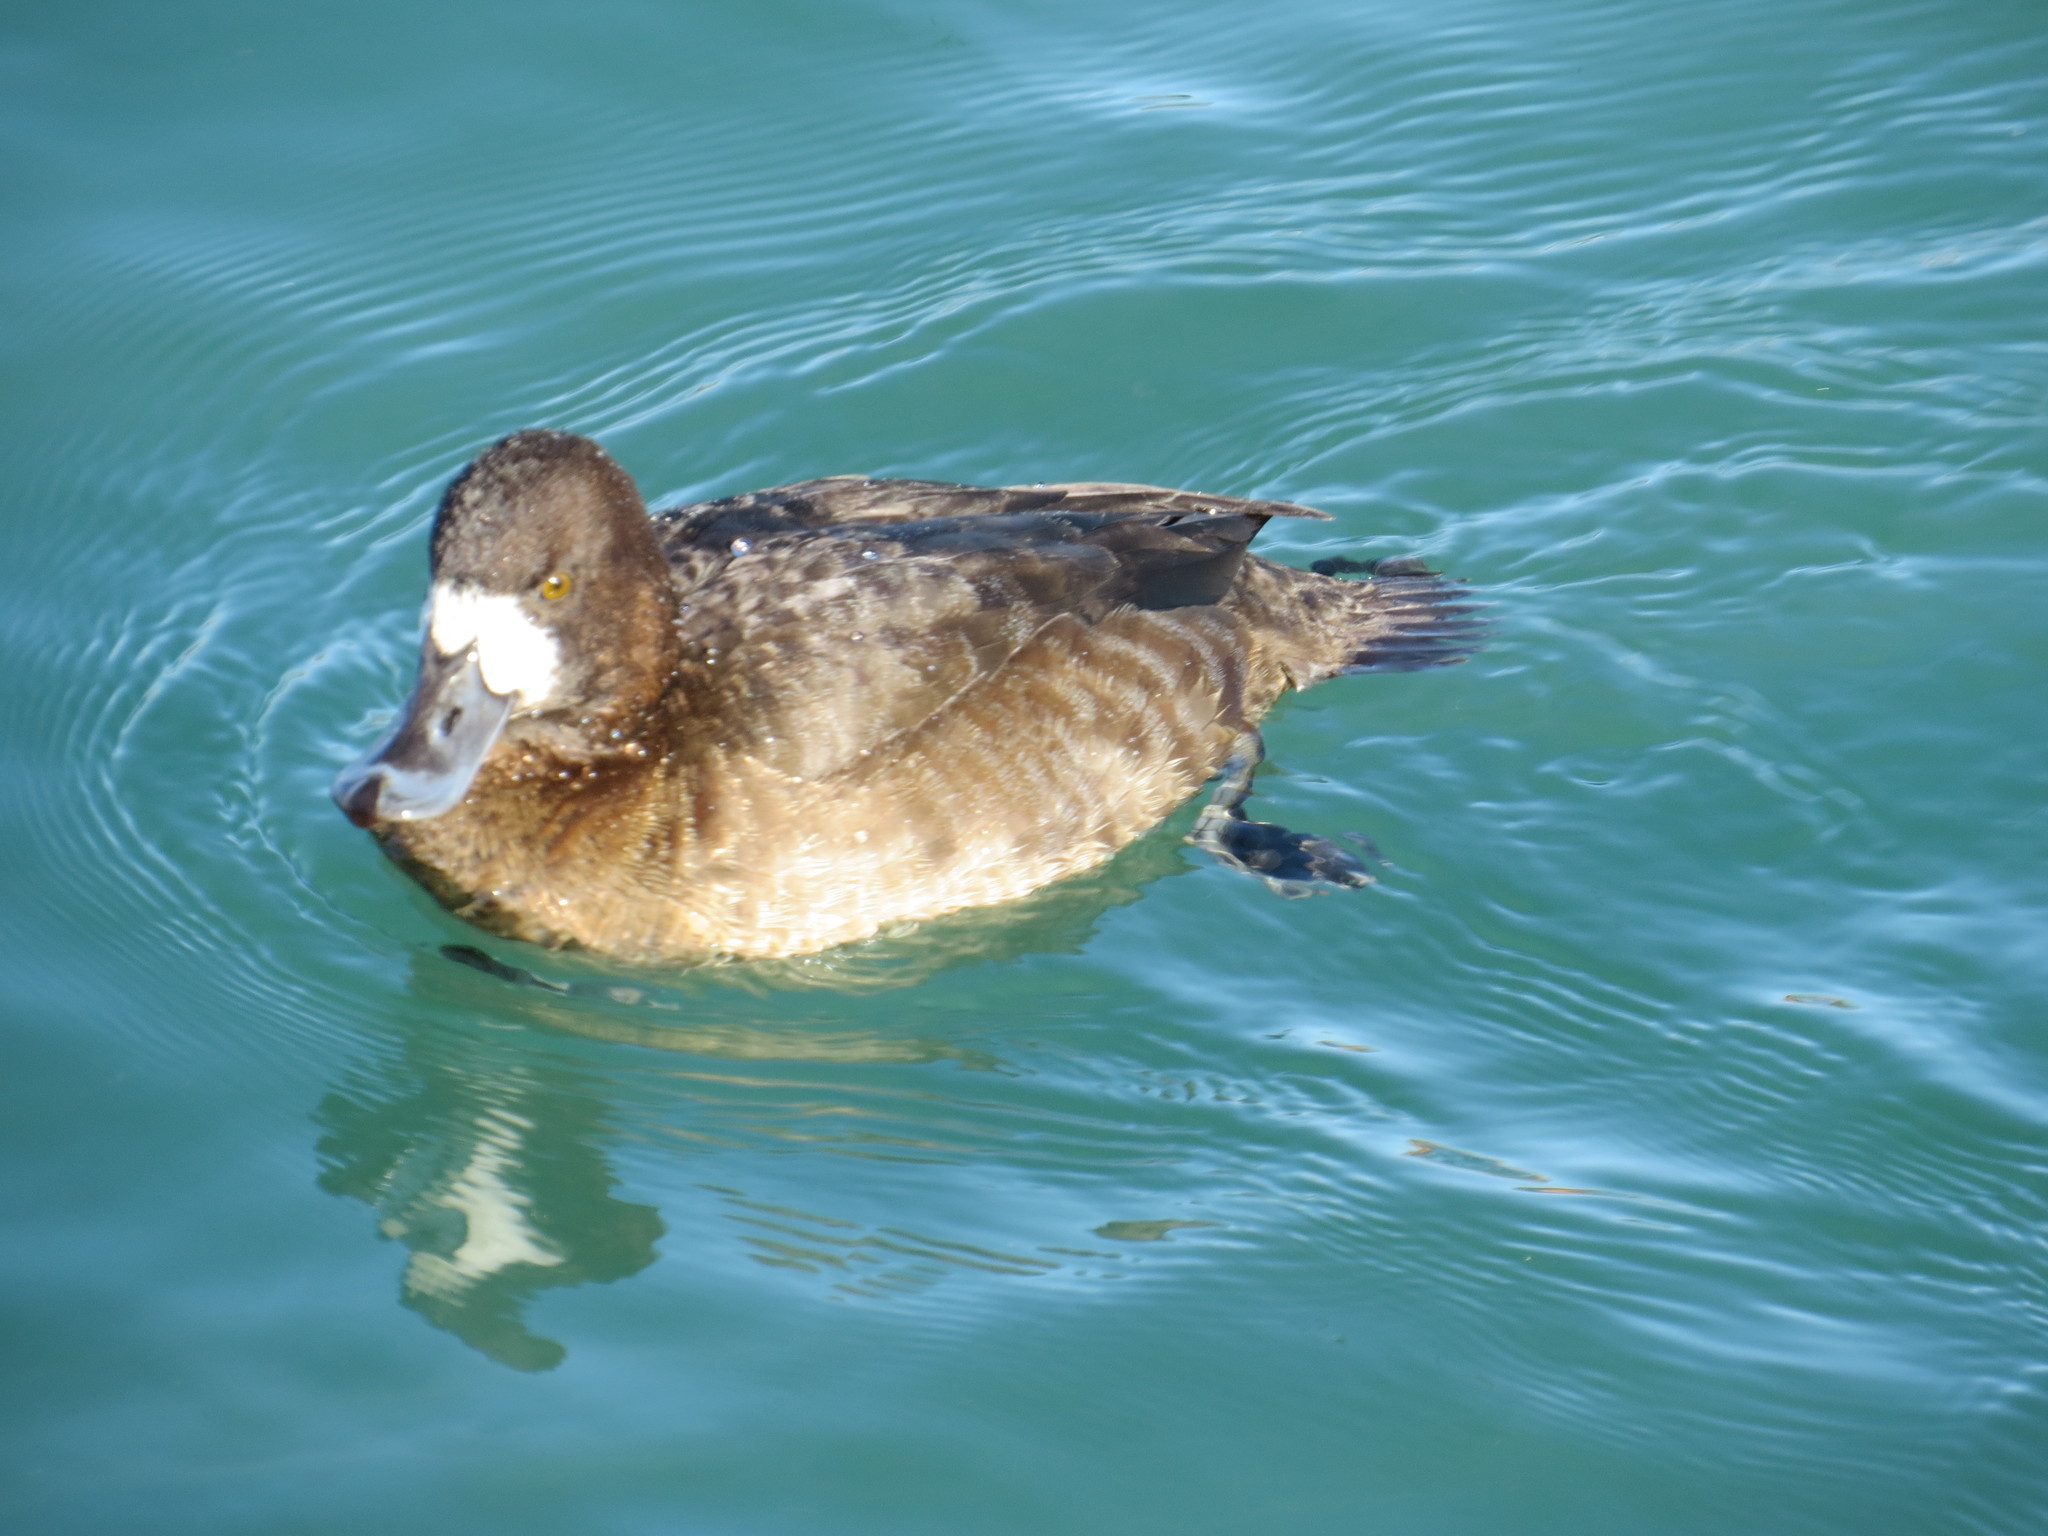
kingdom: Animalia
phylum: Chordata
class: Aves
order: Anseriformes
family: Anatidae
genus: Aythya
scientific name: Aythya marila
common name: Greater scaup
